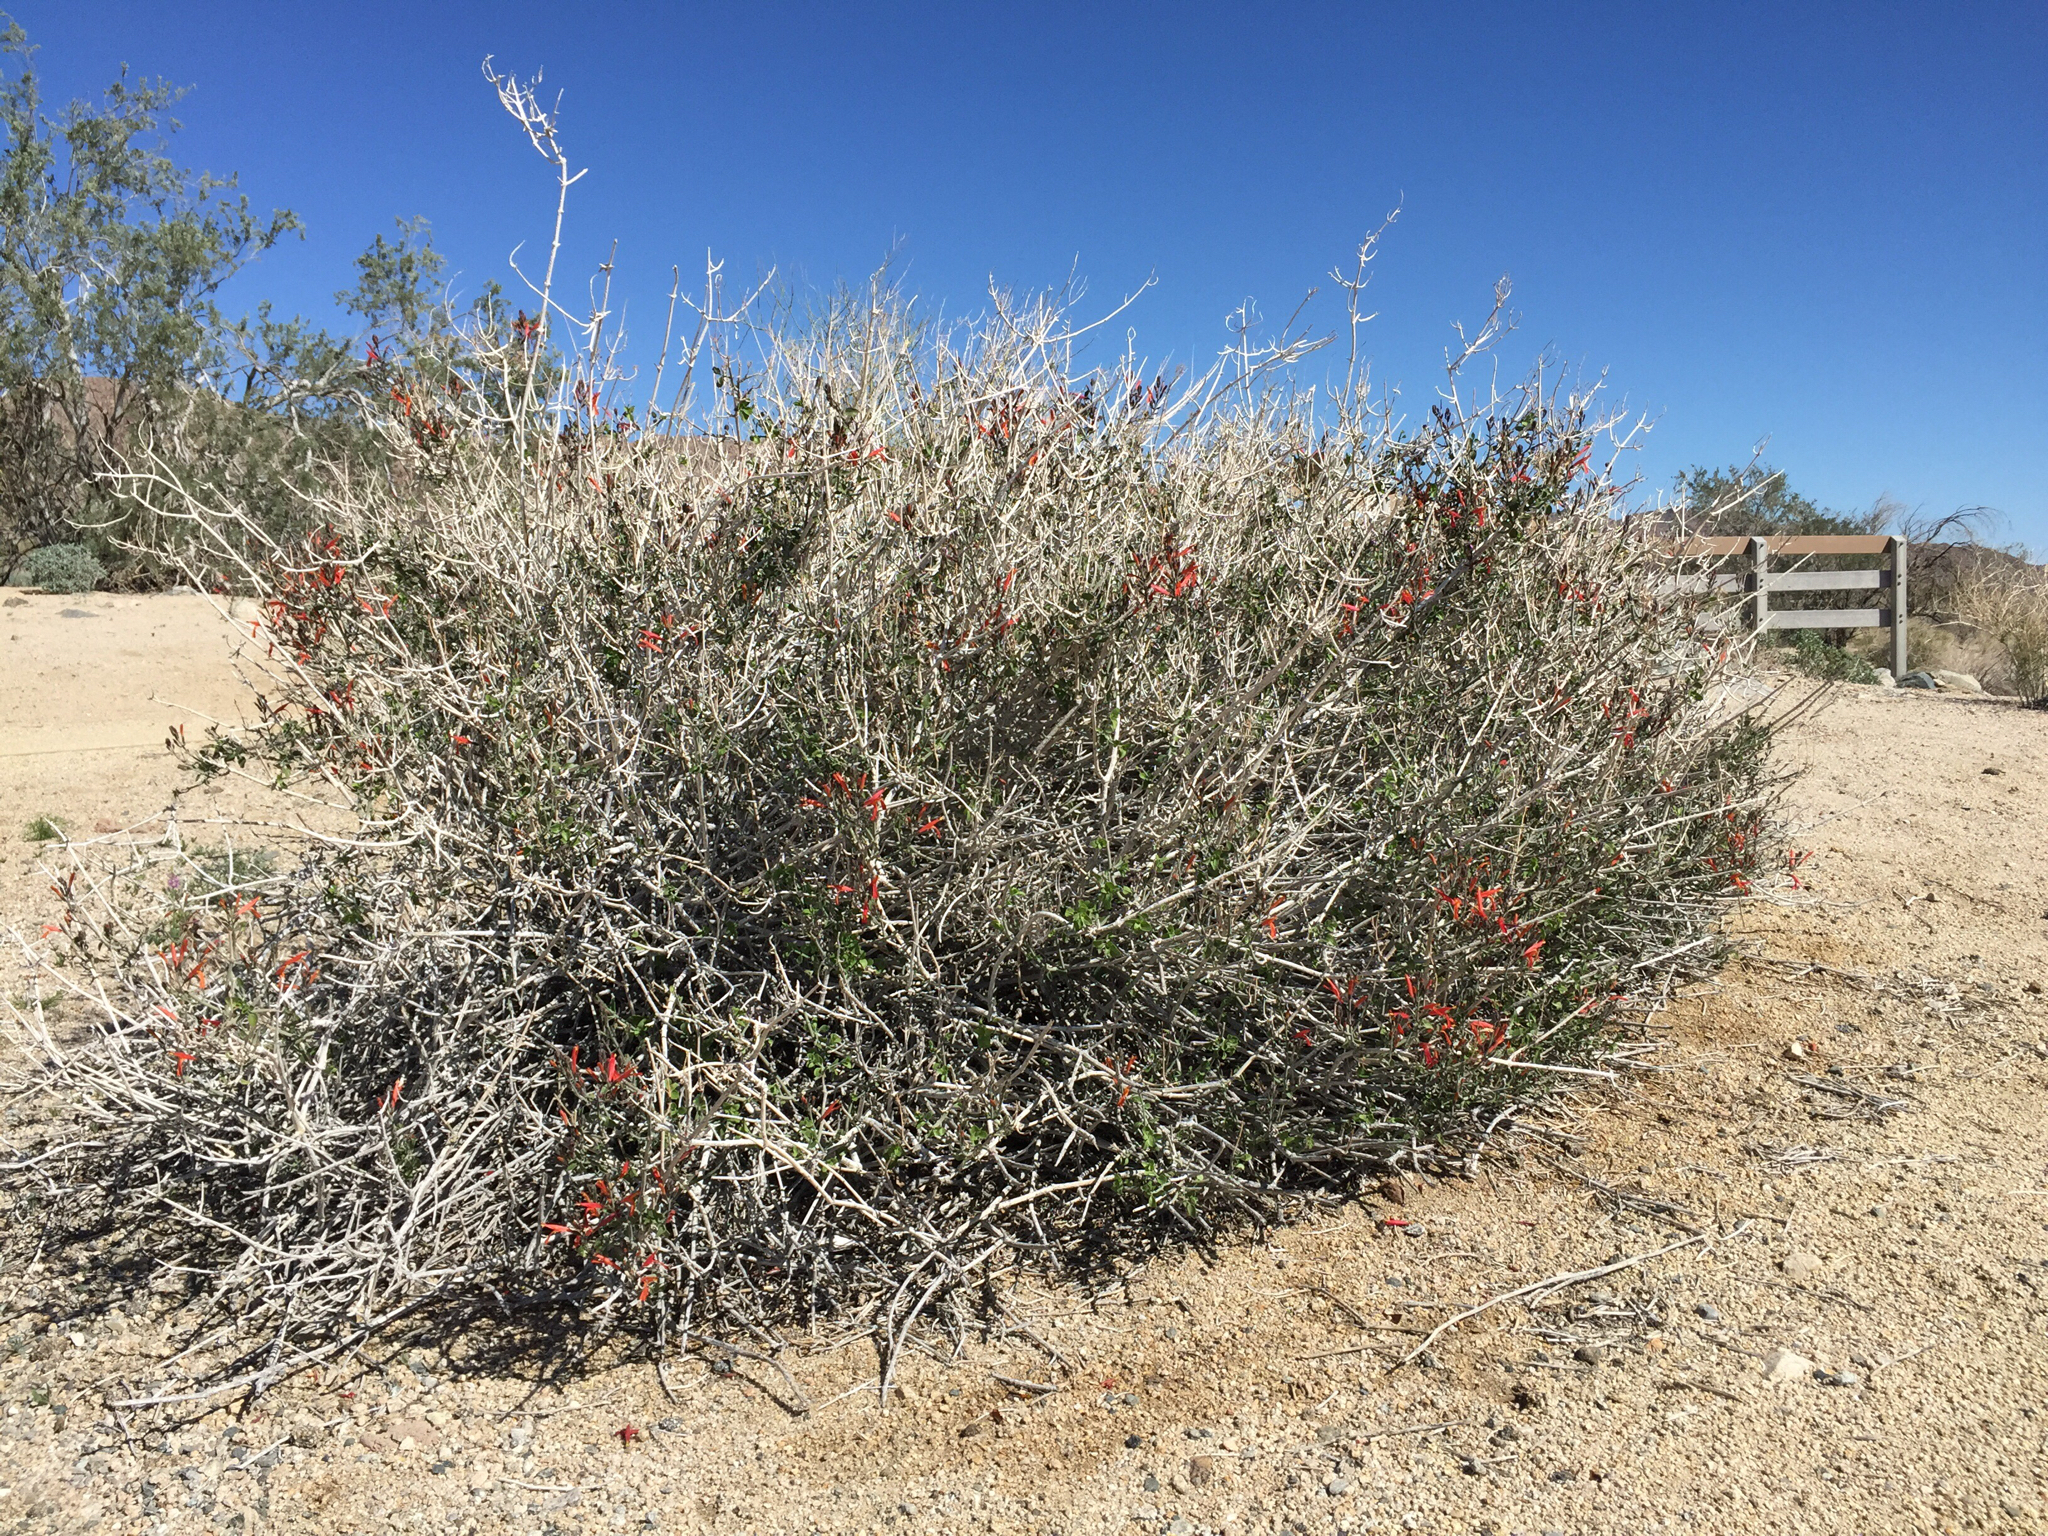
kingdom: Plantae
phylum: Tracheophyta
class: Magnoliopsida
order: Lamiales
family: Acanthaceae
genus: Justicia
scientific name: Justicia californica
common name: Chuparosa-honeysuckle
